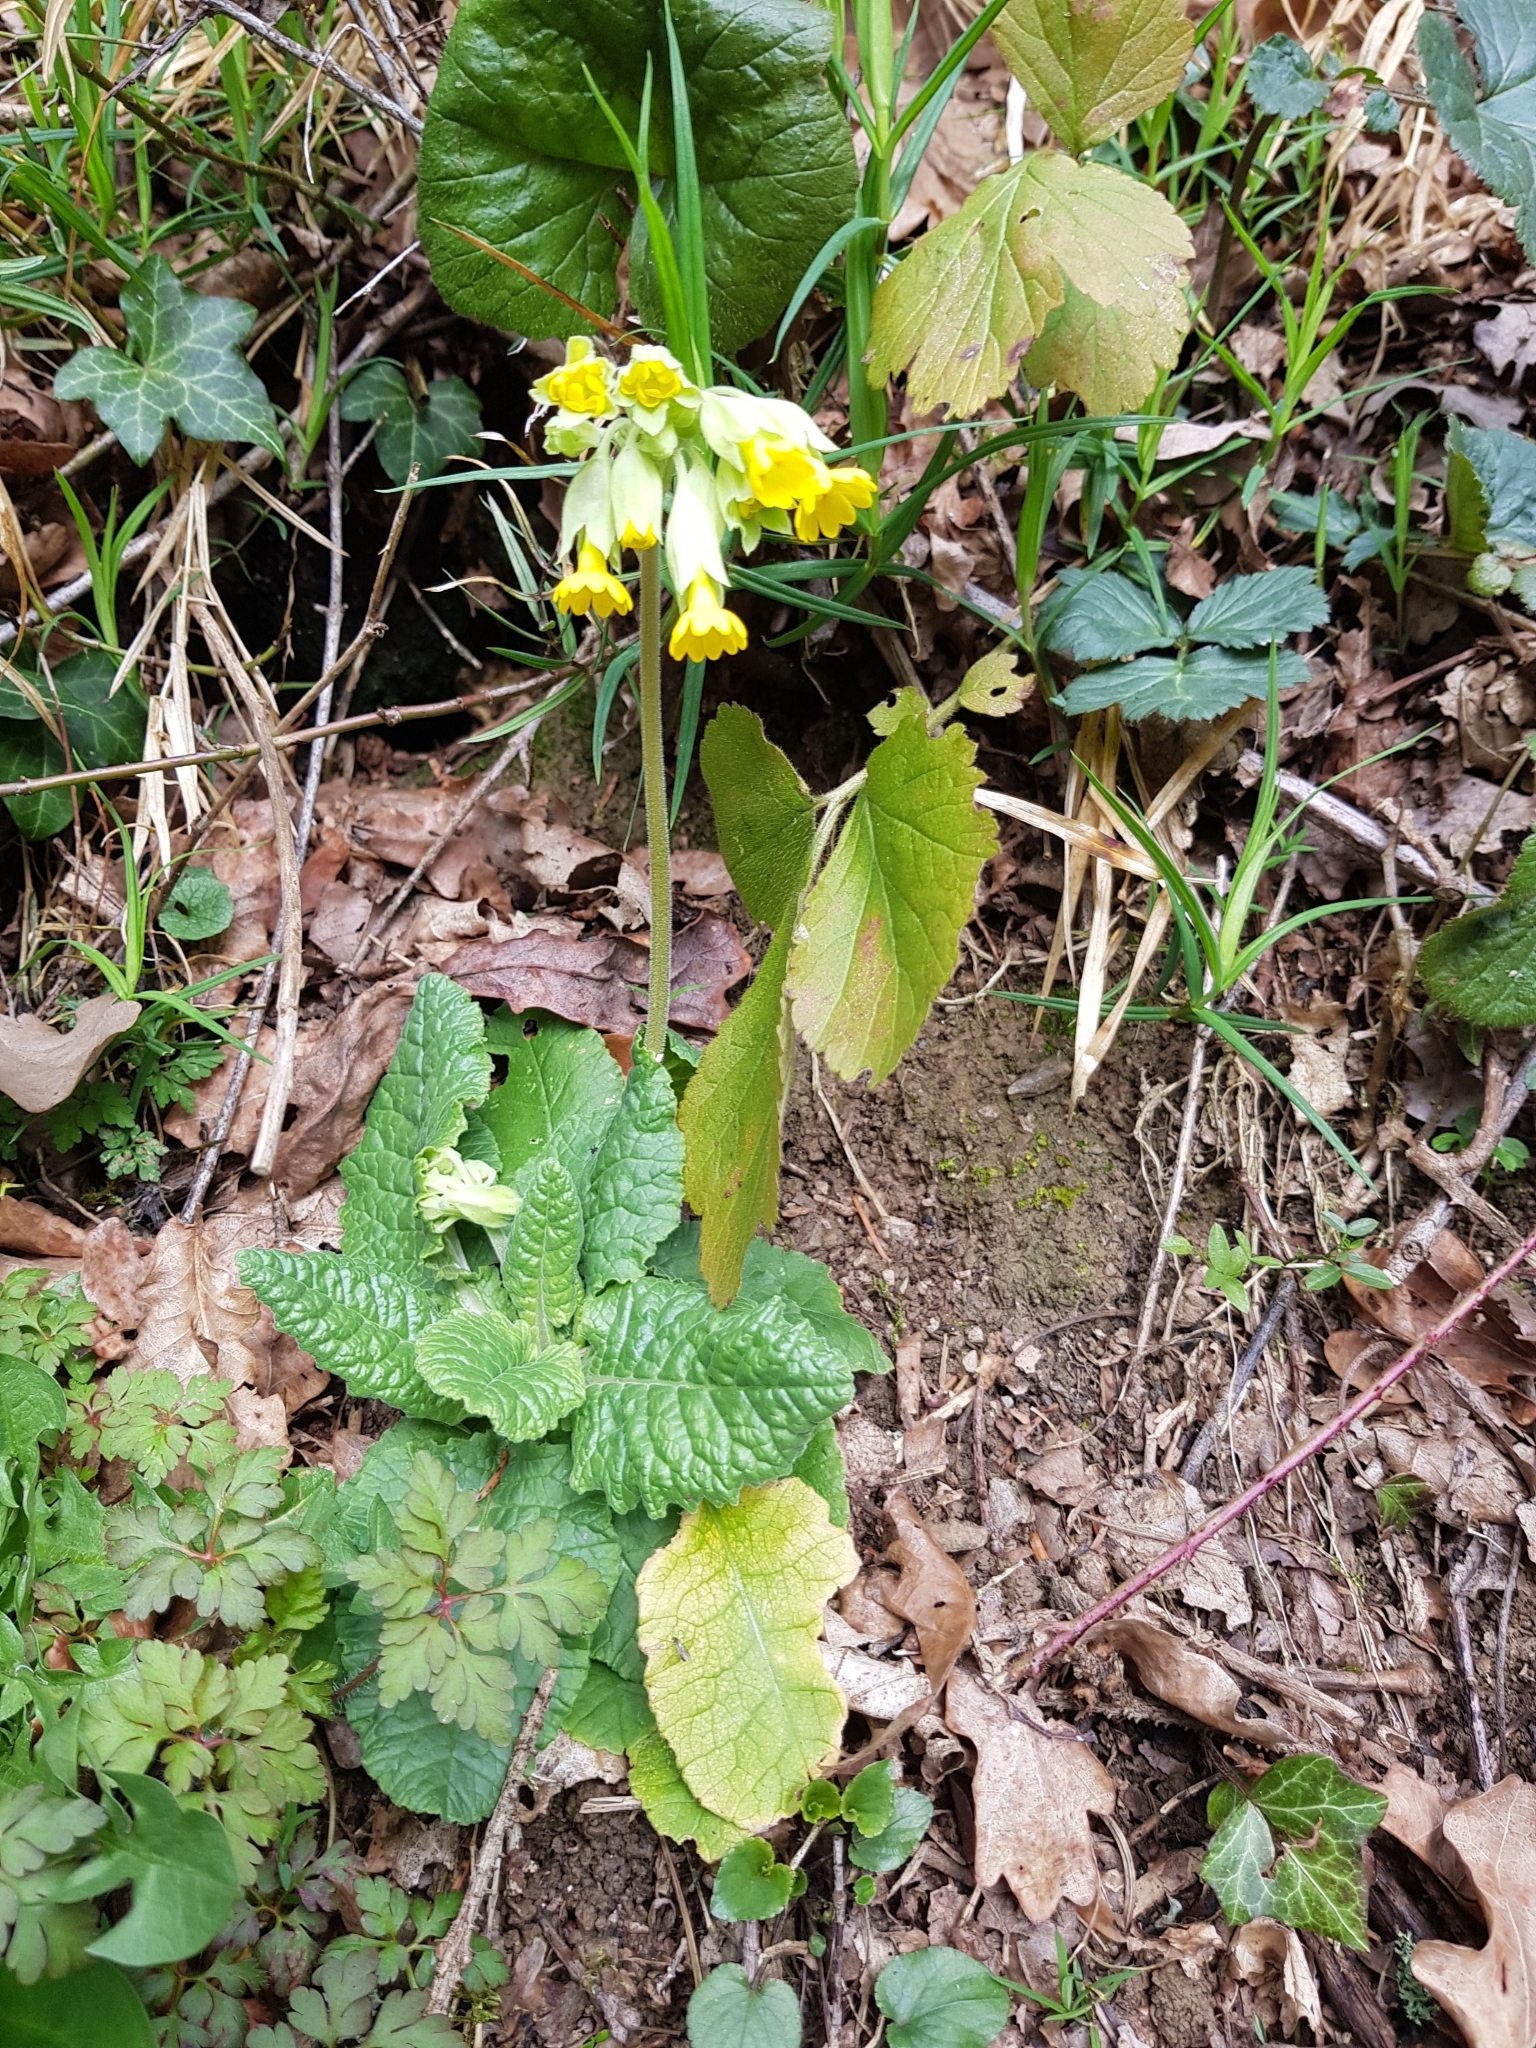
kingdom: Plantae
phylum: Tracheophyta
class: Magnoliopsida
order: Ericales
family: Primulaceae
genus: Primula
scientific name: Primula veris
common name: Cowslip
